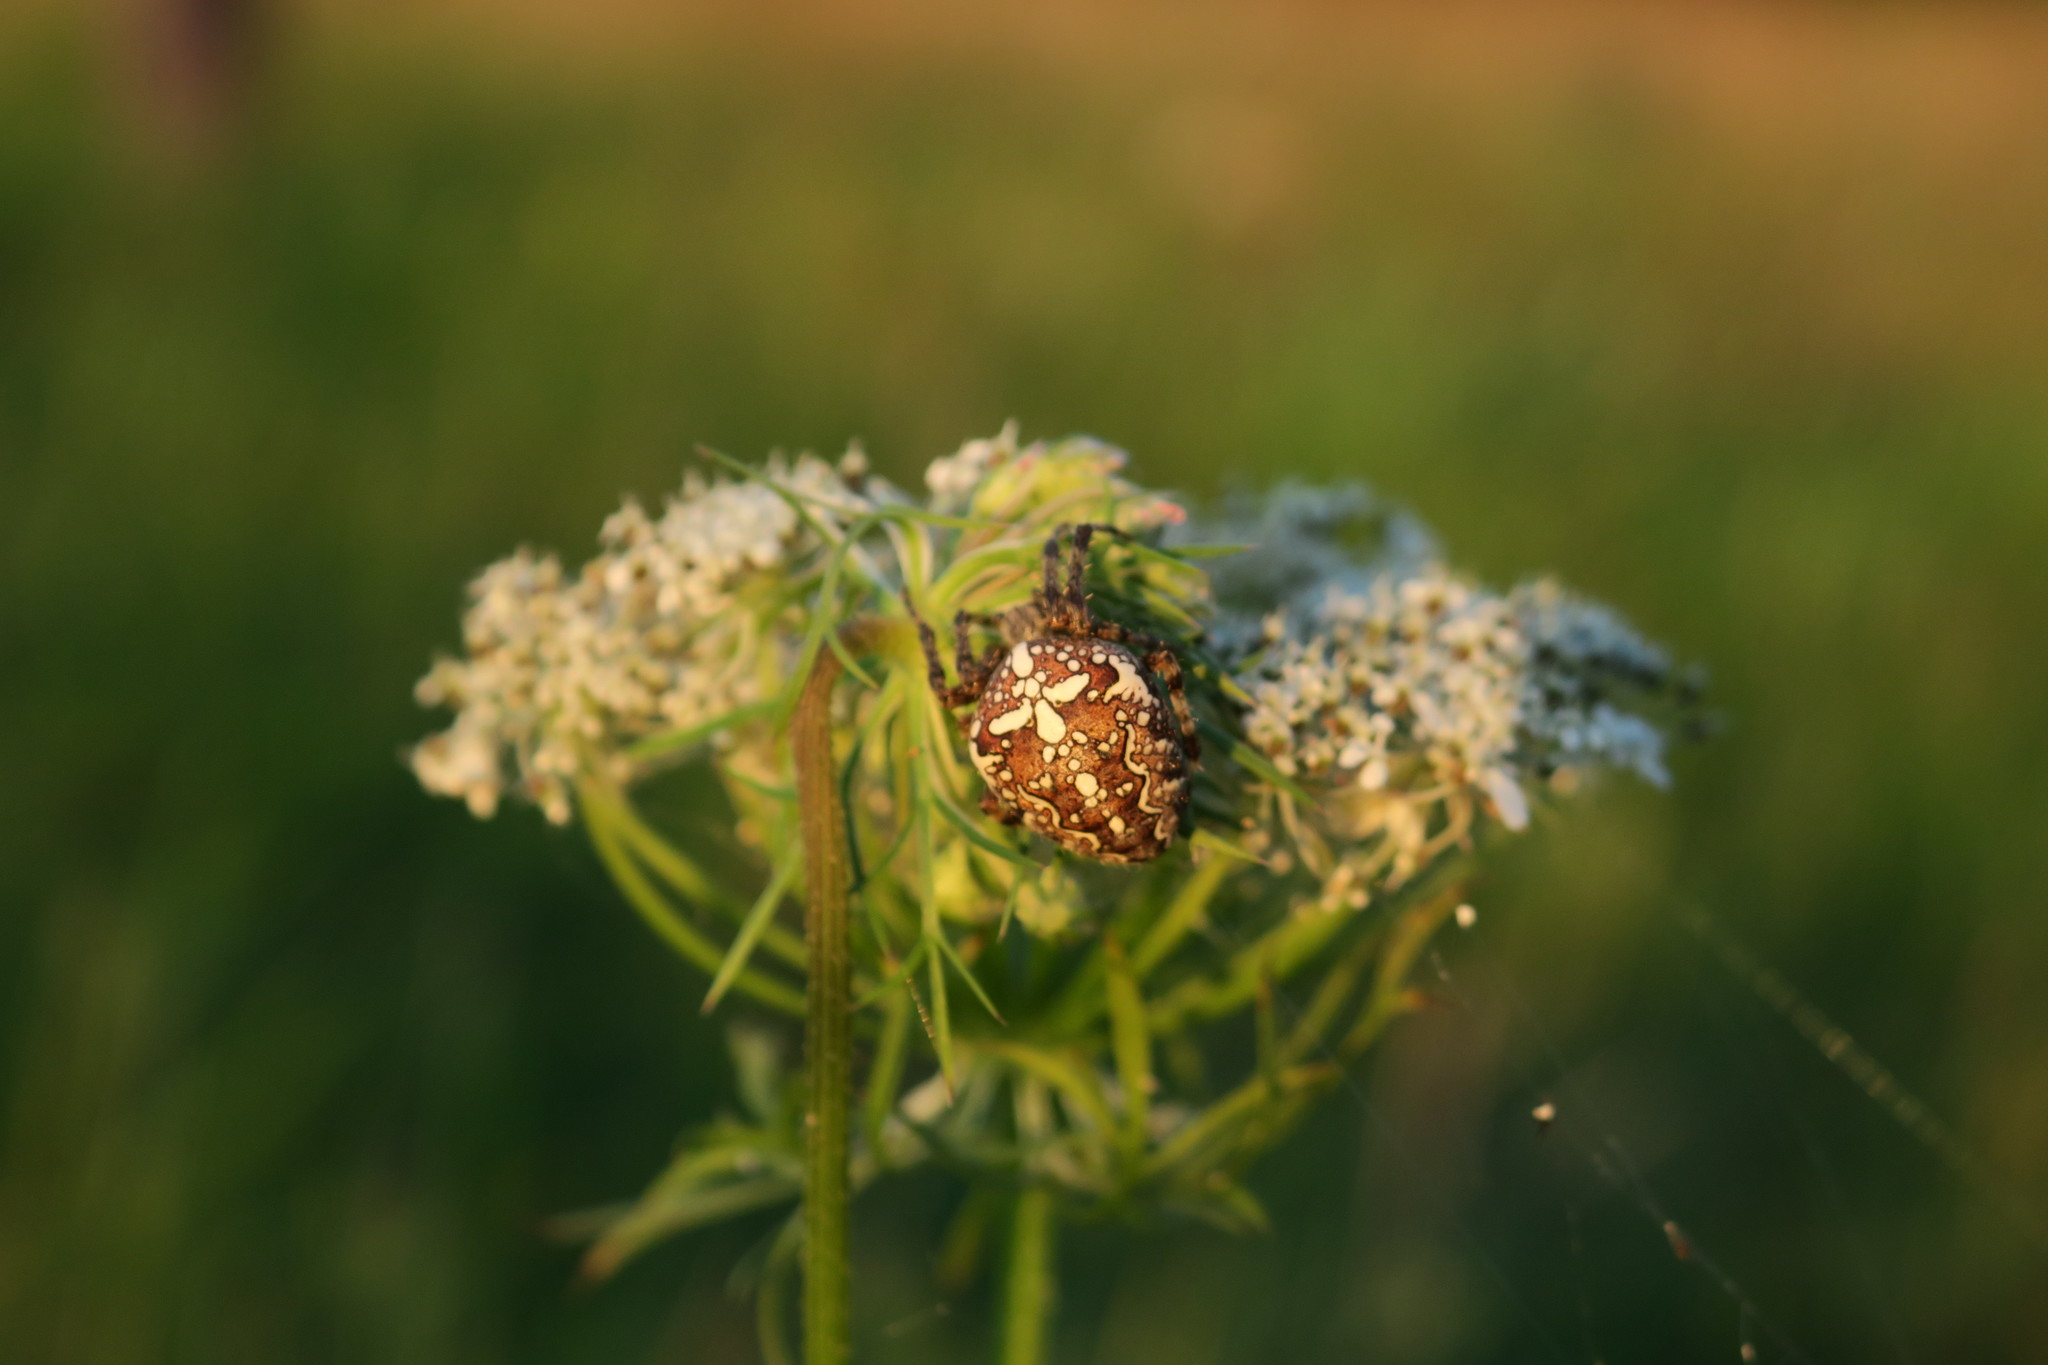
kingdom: Animalia
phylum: Arthropoda
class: Arachnida
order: Araneae
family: Araneidae
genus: Araneus
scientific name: Araneus diadematus
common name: Cross orbweaver
